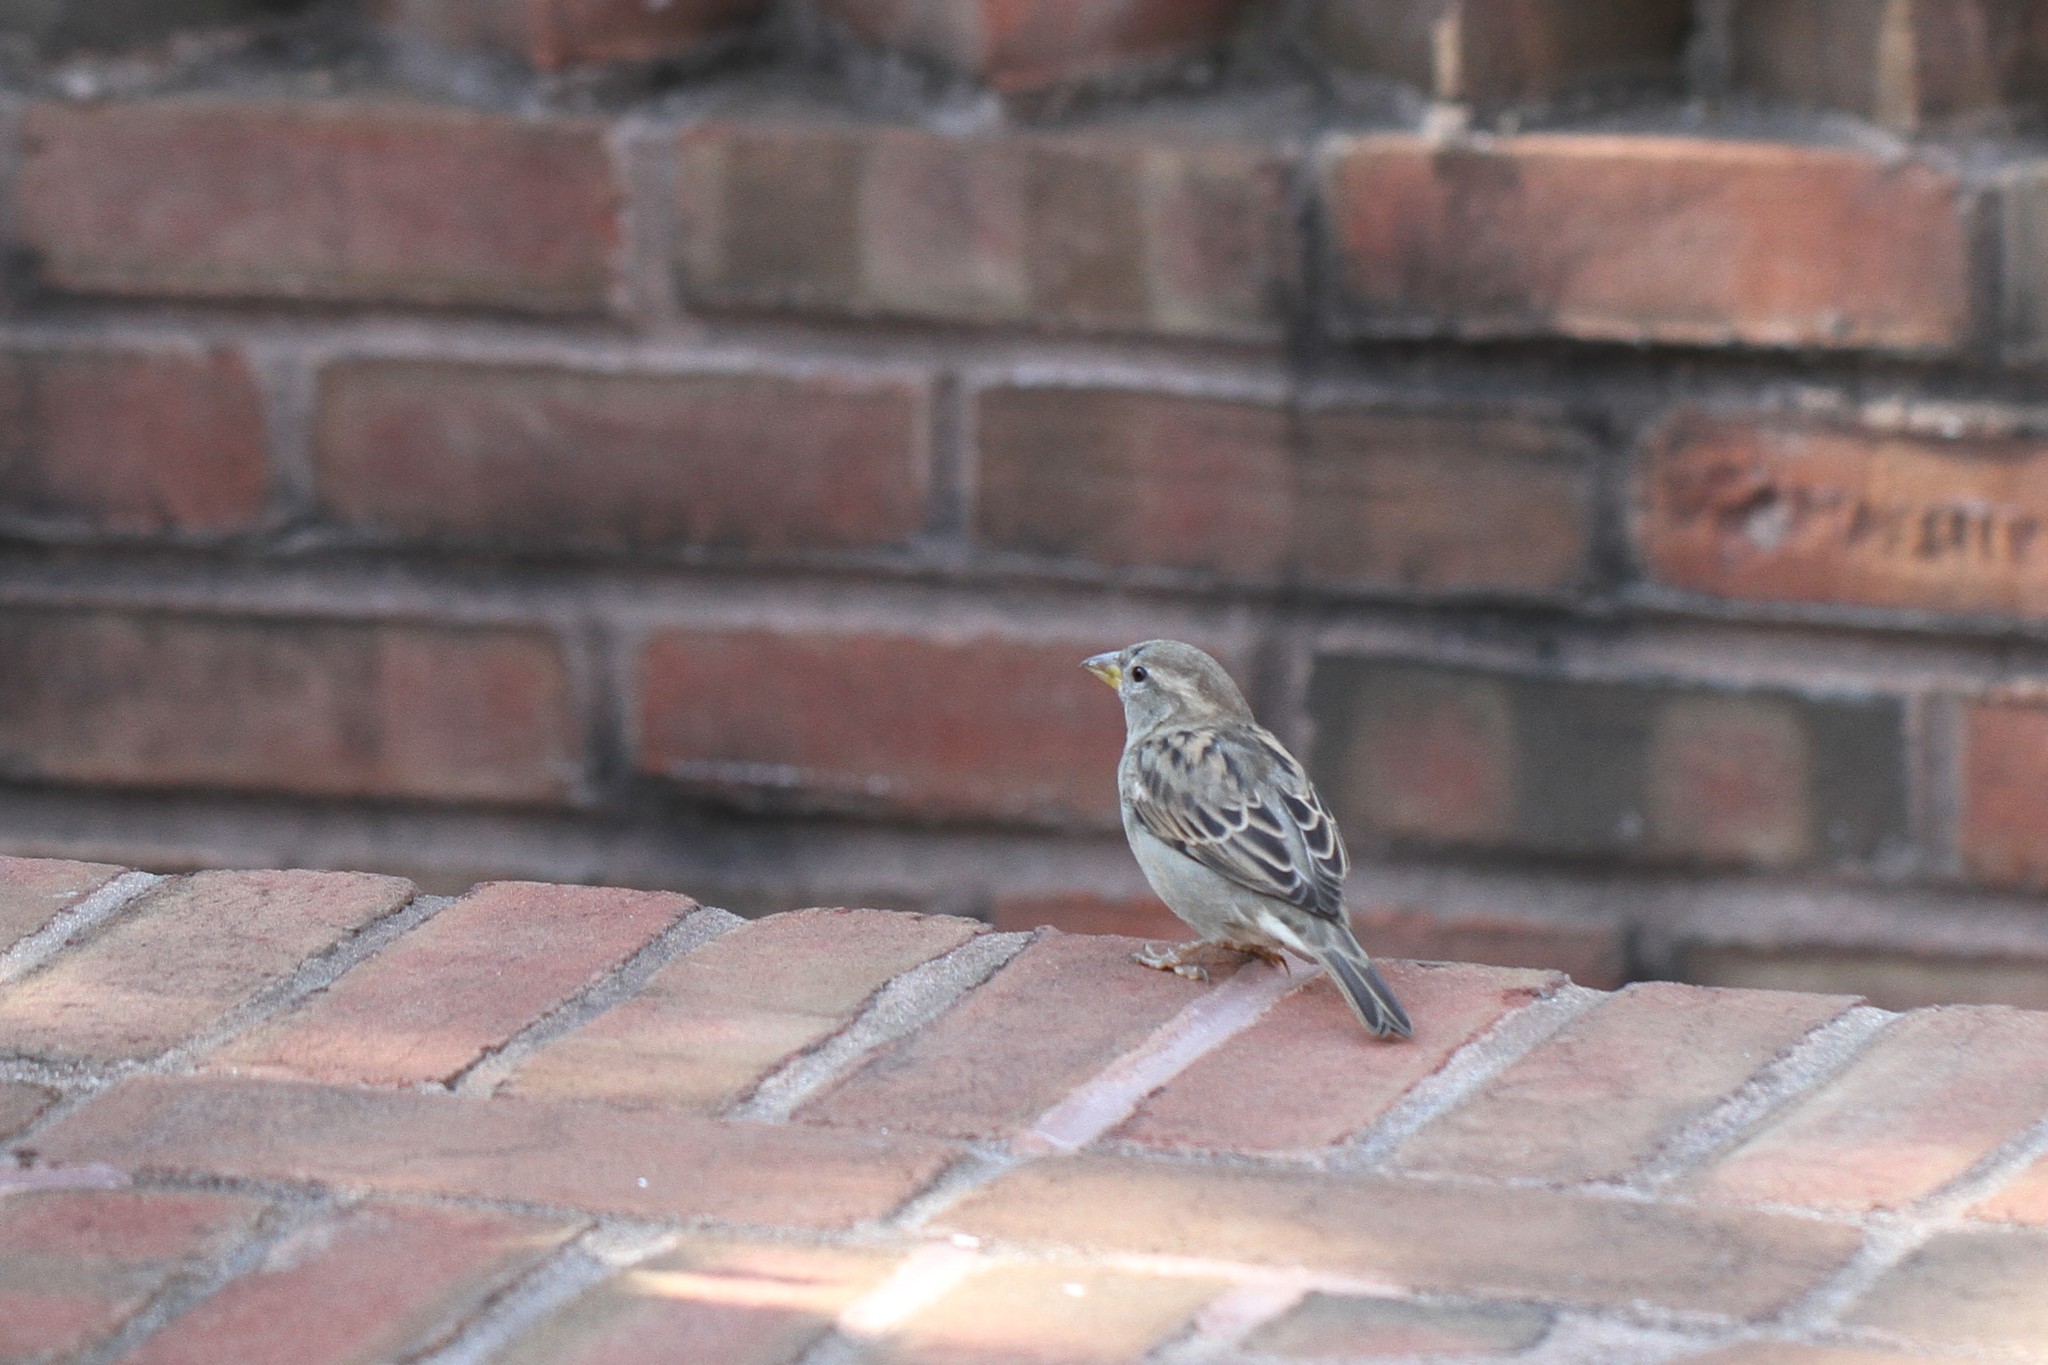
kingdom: Animalia
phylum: Chordata
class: Aves
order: Passeriformes
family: Passeridae
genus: Passer
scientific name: Passer domesticus
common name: House sparrow
